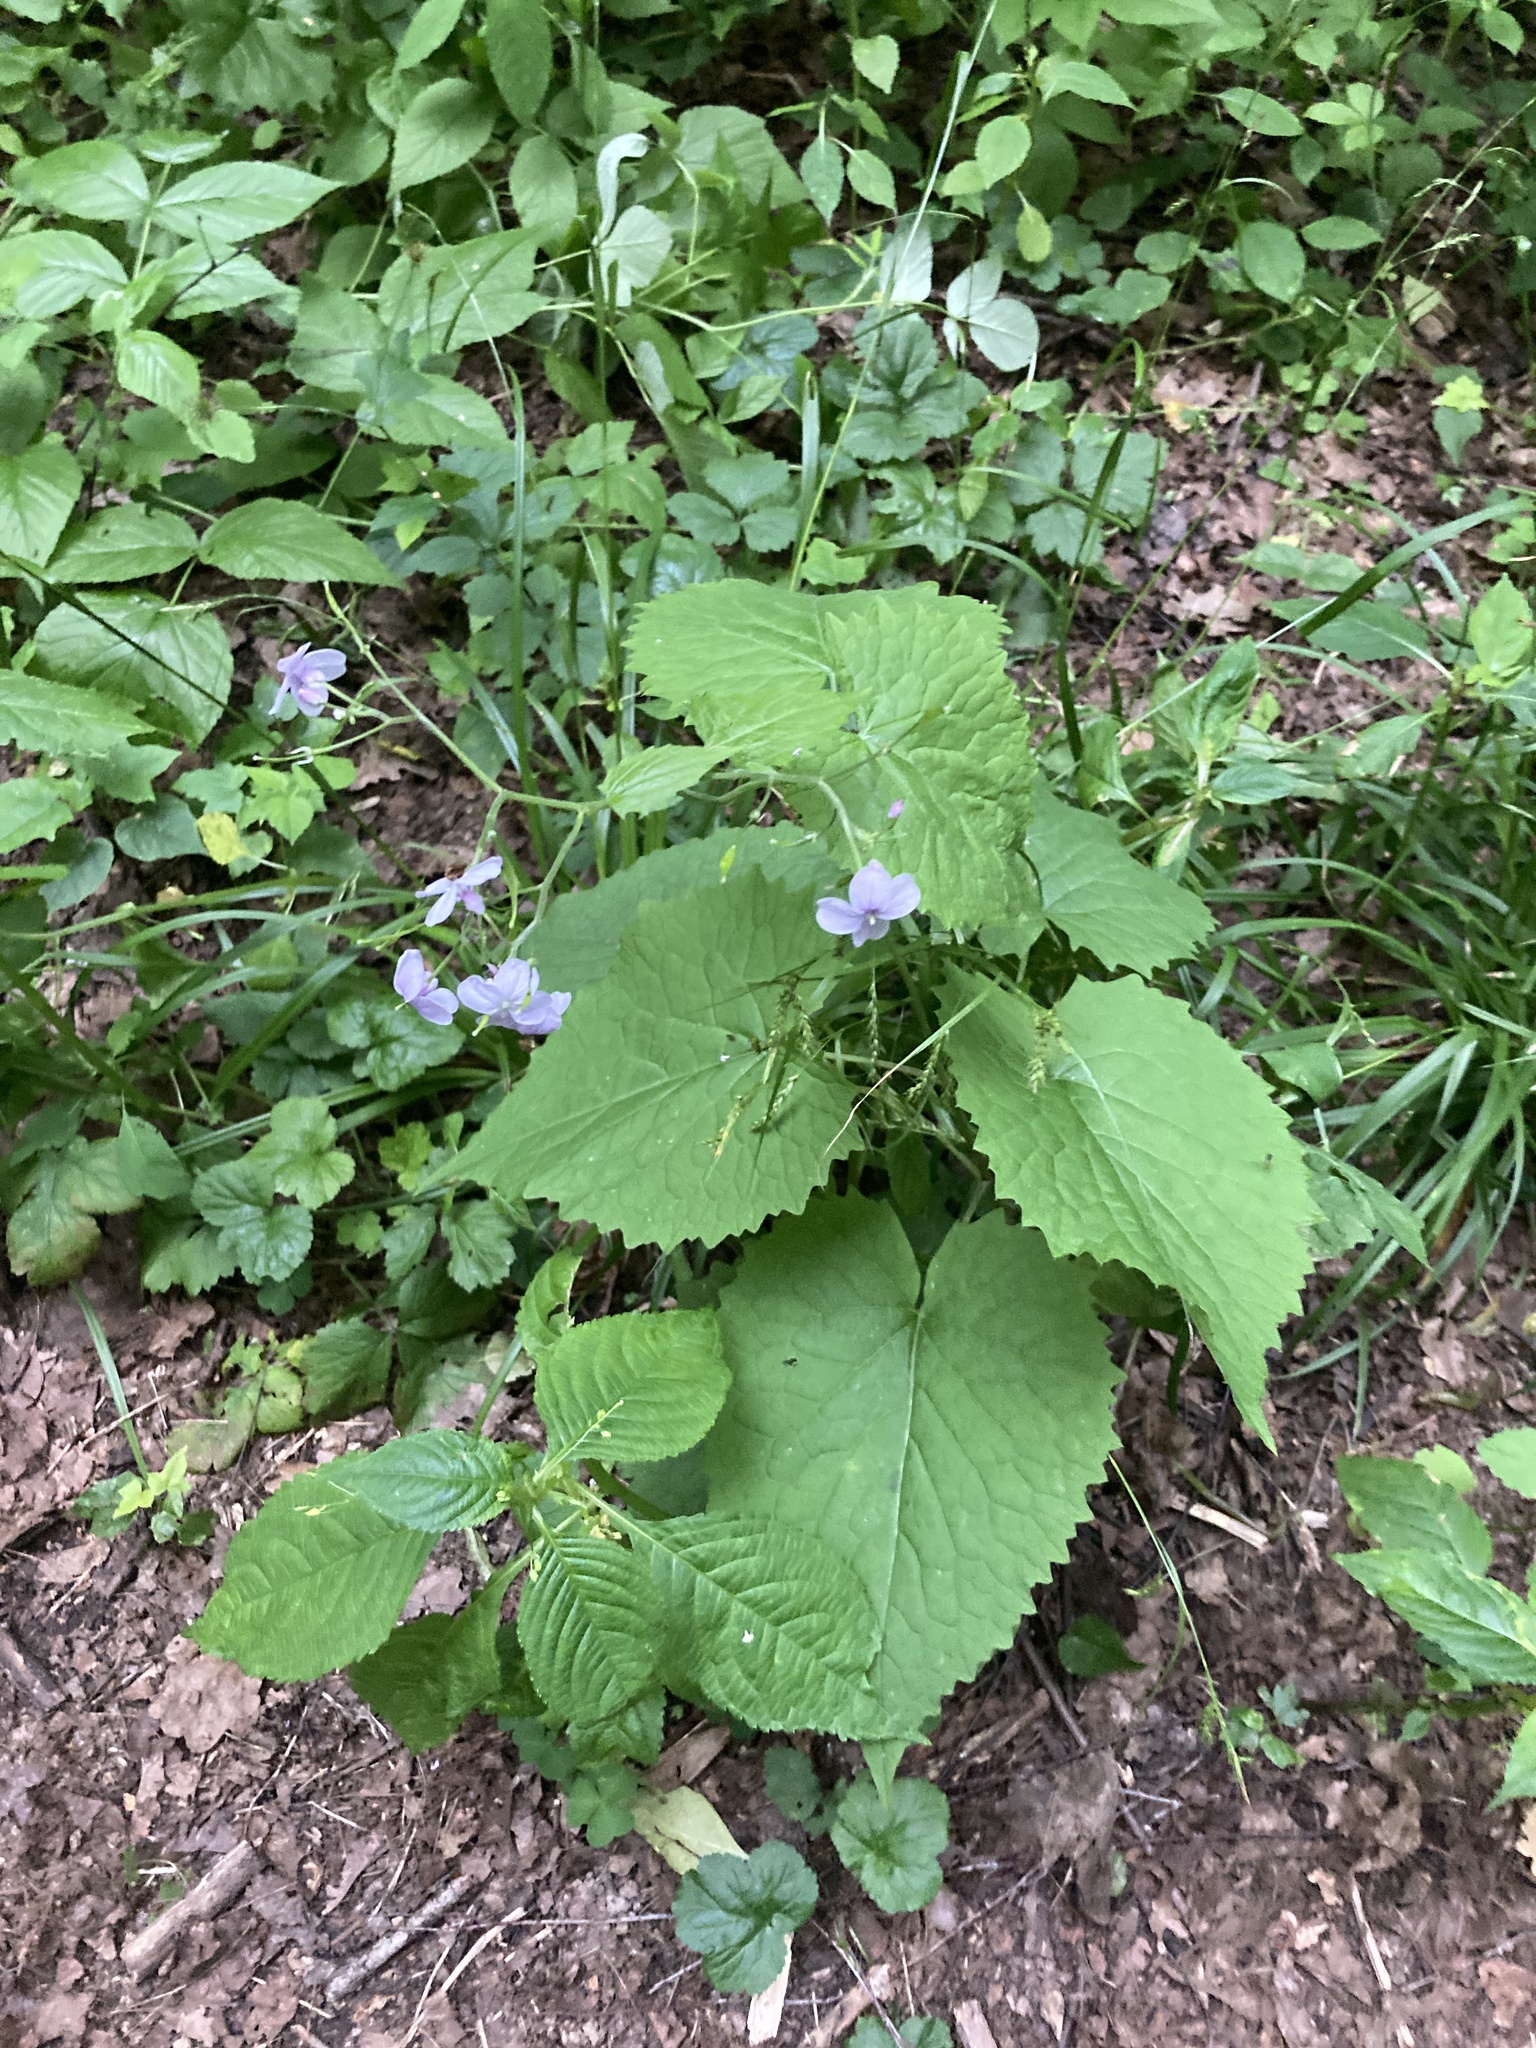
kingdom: Plantae
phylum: Tracheophyta
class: Magnoliopsida
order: Brassicales
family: Brassicaceae
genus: Lunaria
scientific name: Lunaria rediviva
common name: Perennial honesty
